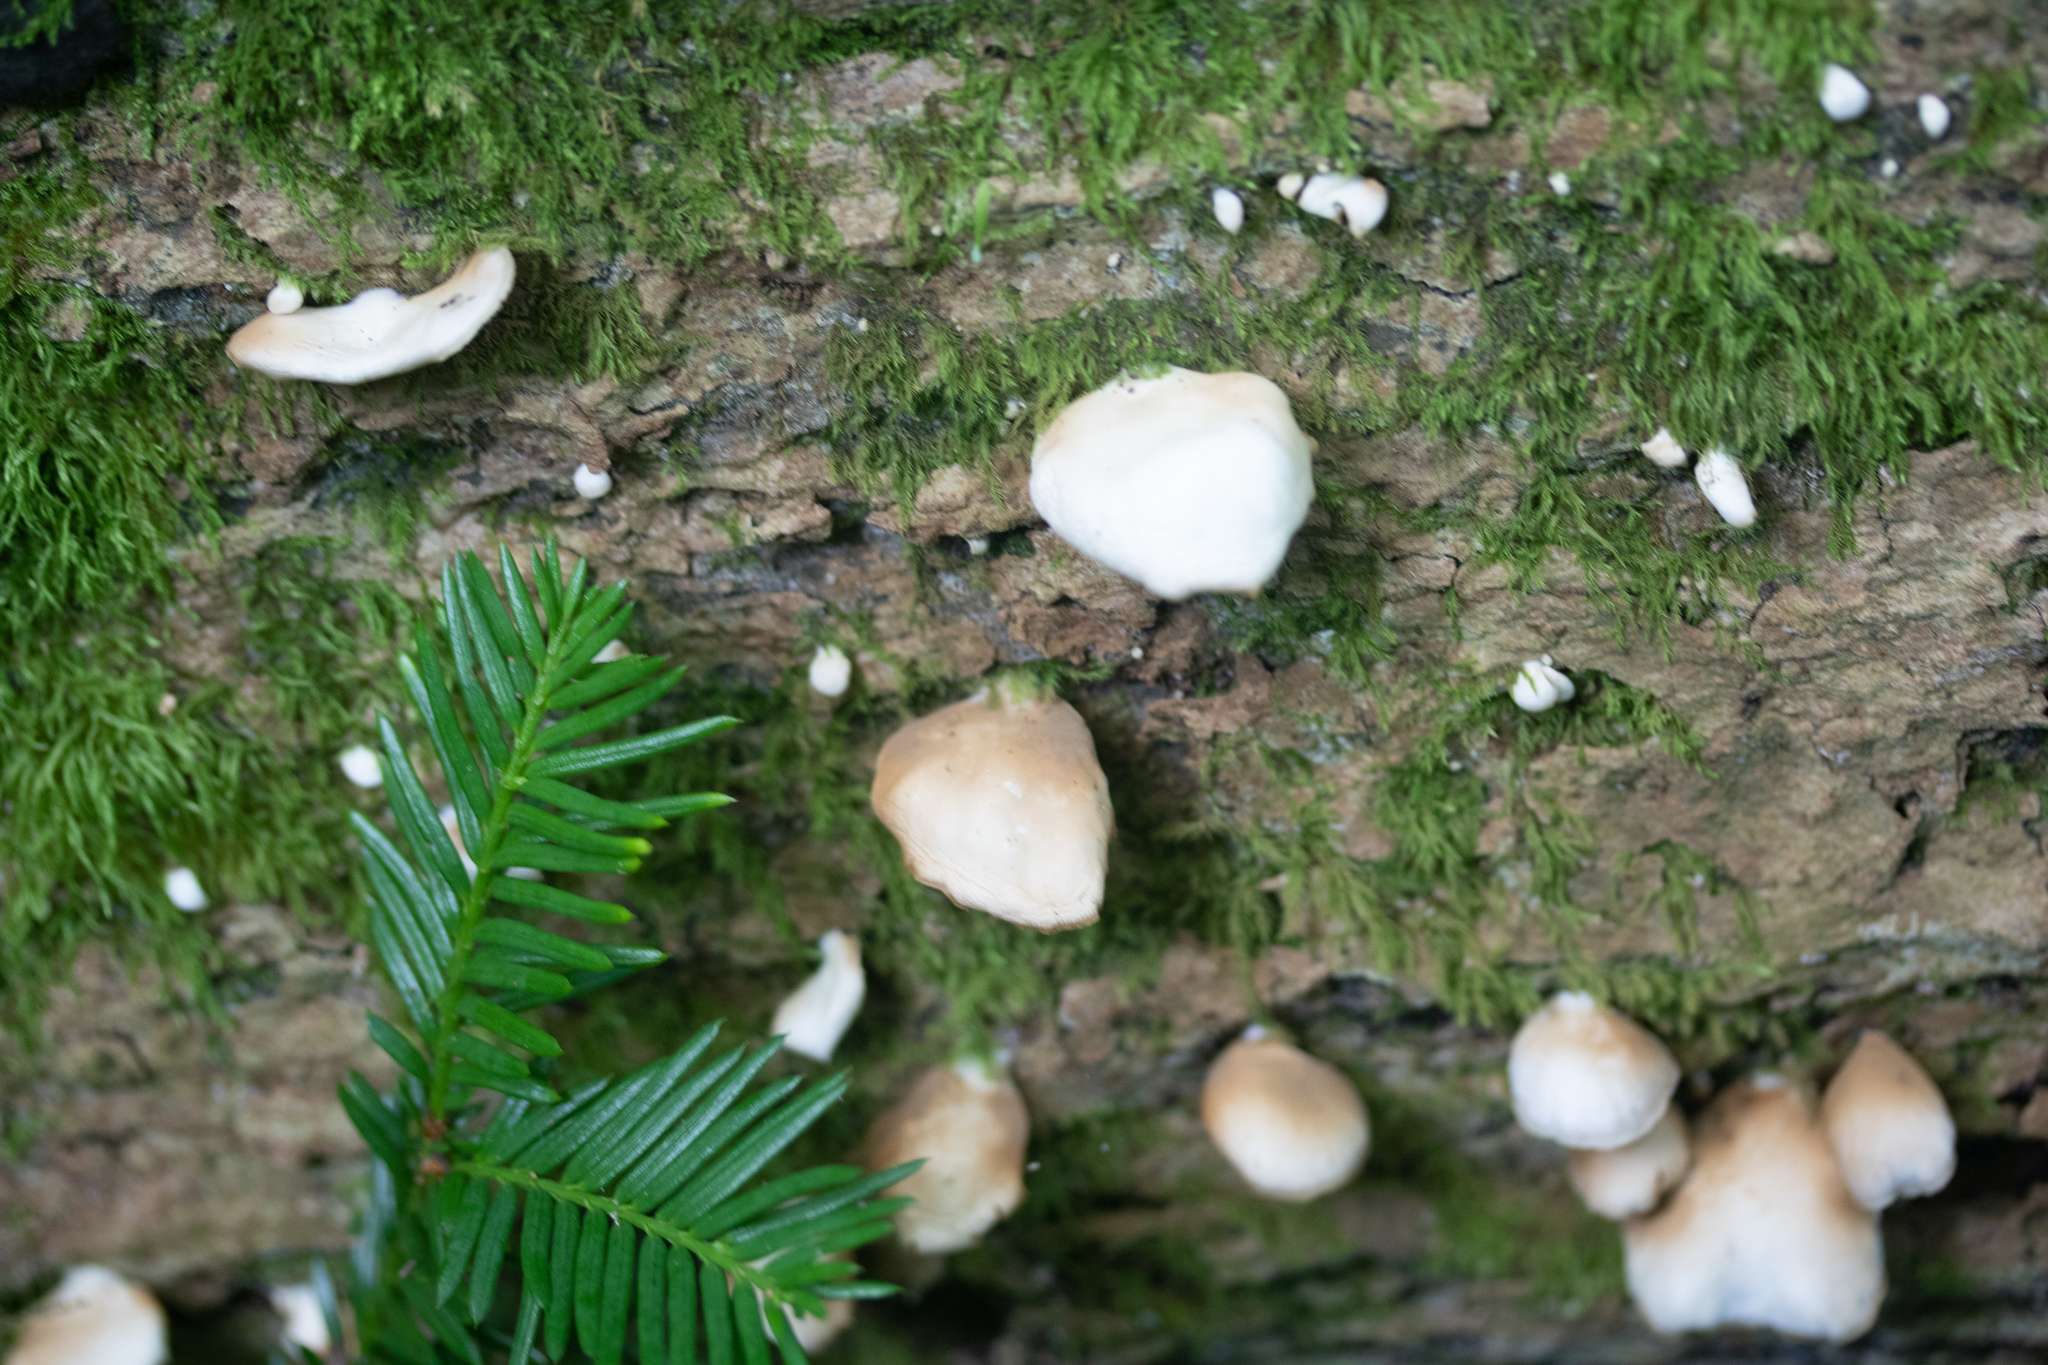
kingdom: Fungi
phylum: Basidiomycota
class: Agaricomycetes
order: Agaricales
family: Crepidotaceae
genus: Crepidotus
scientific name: Crepidotus applanatus
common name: Flat crep
